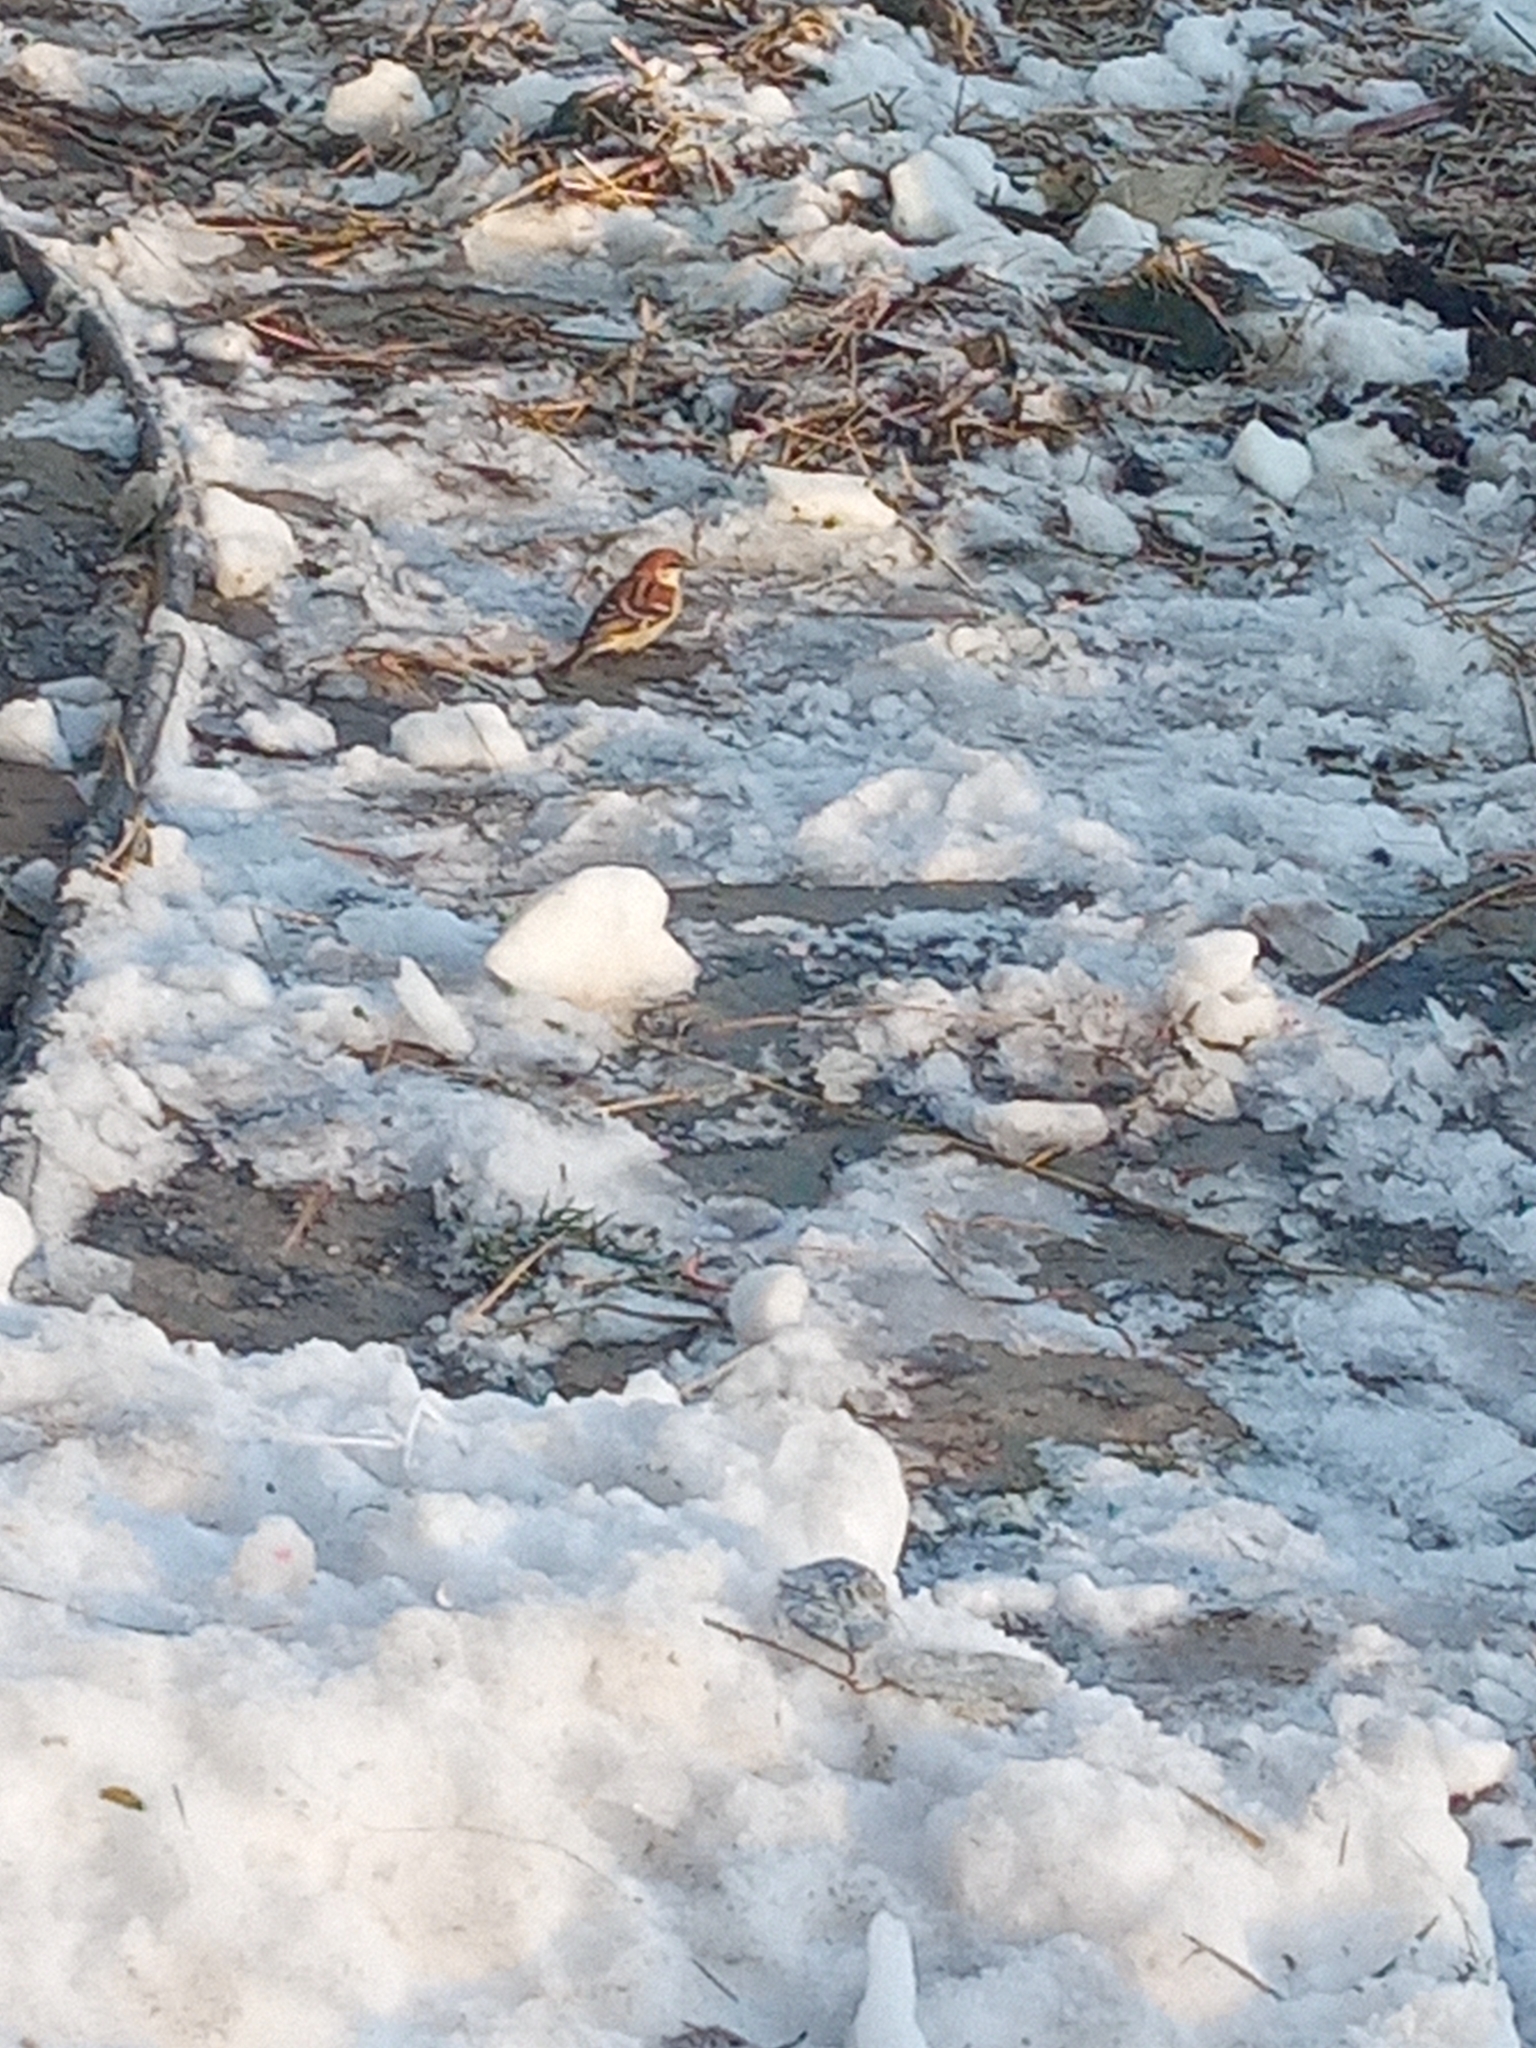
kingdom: Animalia
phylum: Chordata
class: Aves
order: Passeriformes
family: Passeridae
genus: Passer
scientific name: Passer domesticus
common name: House sparrow
